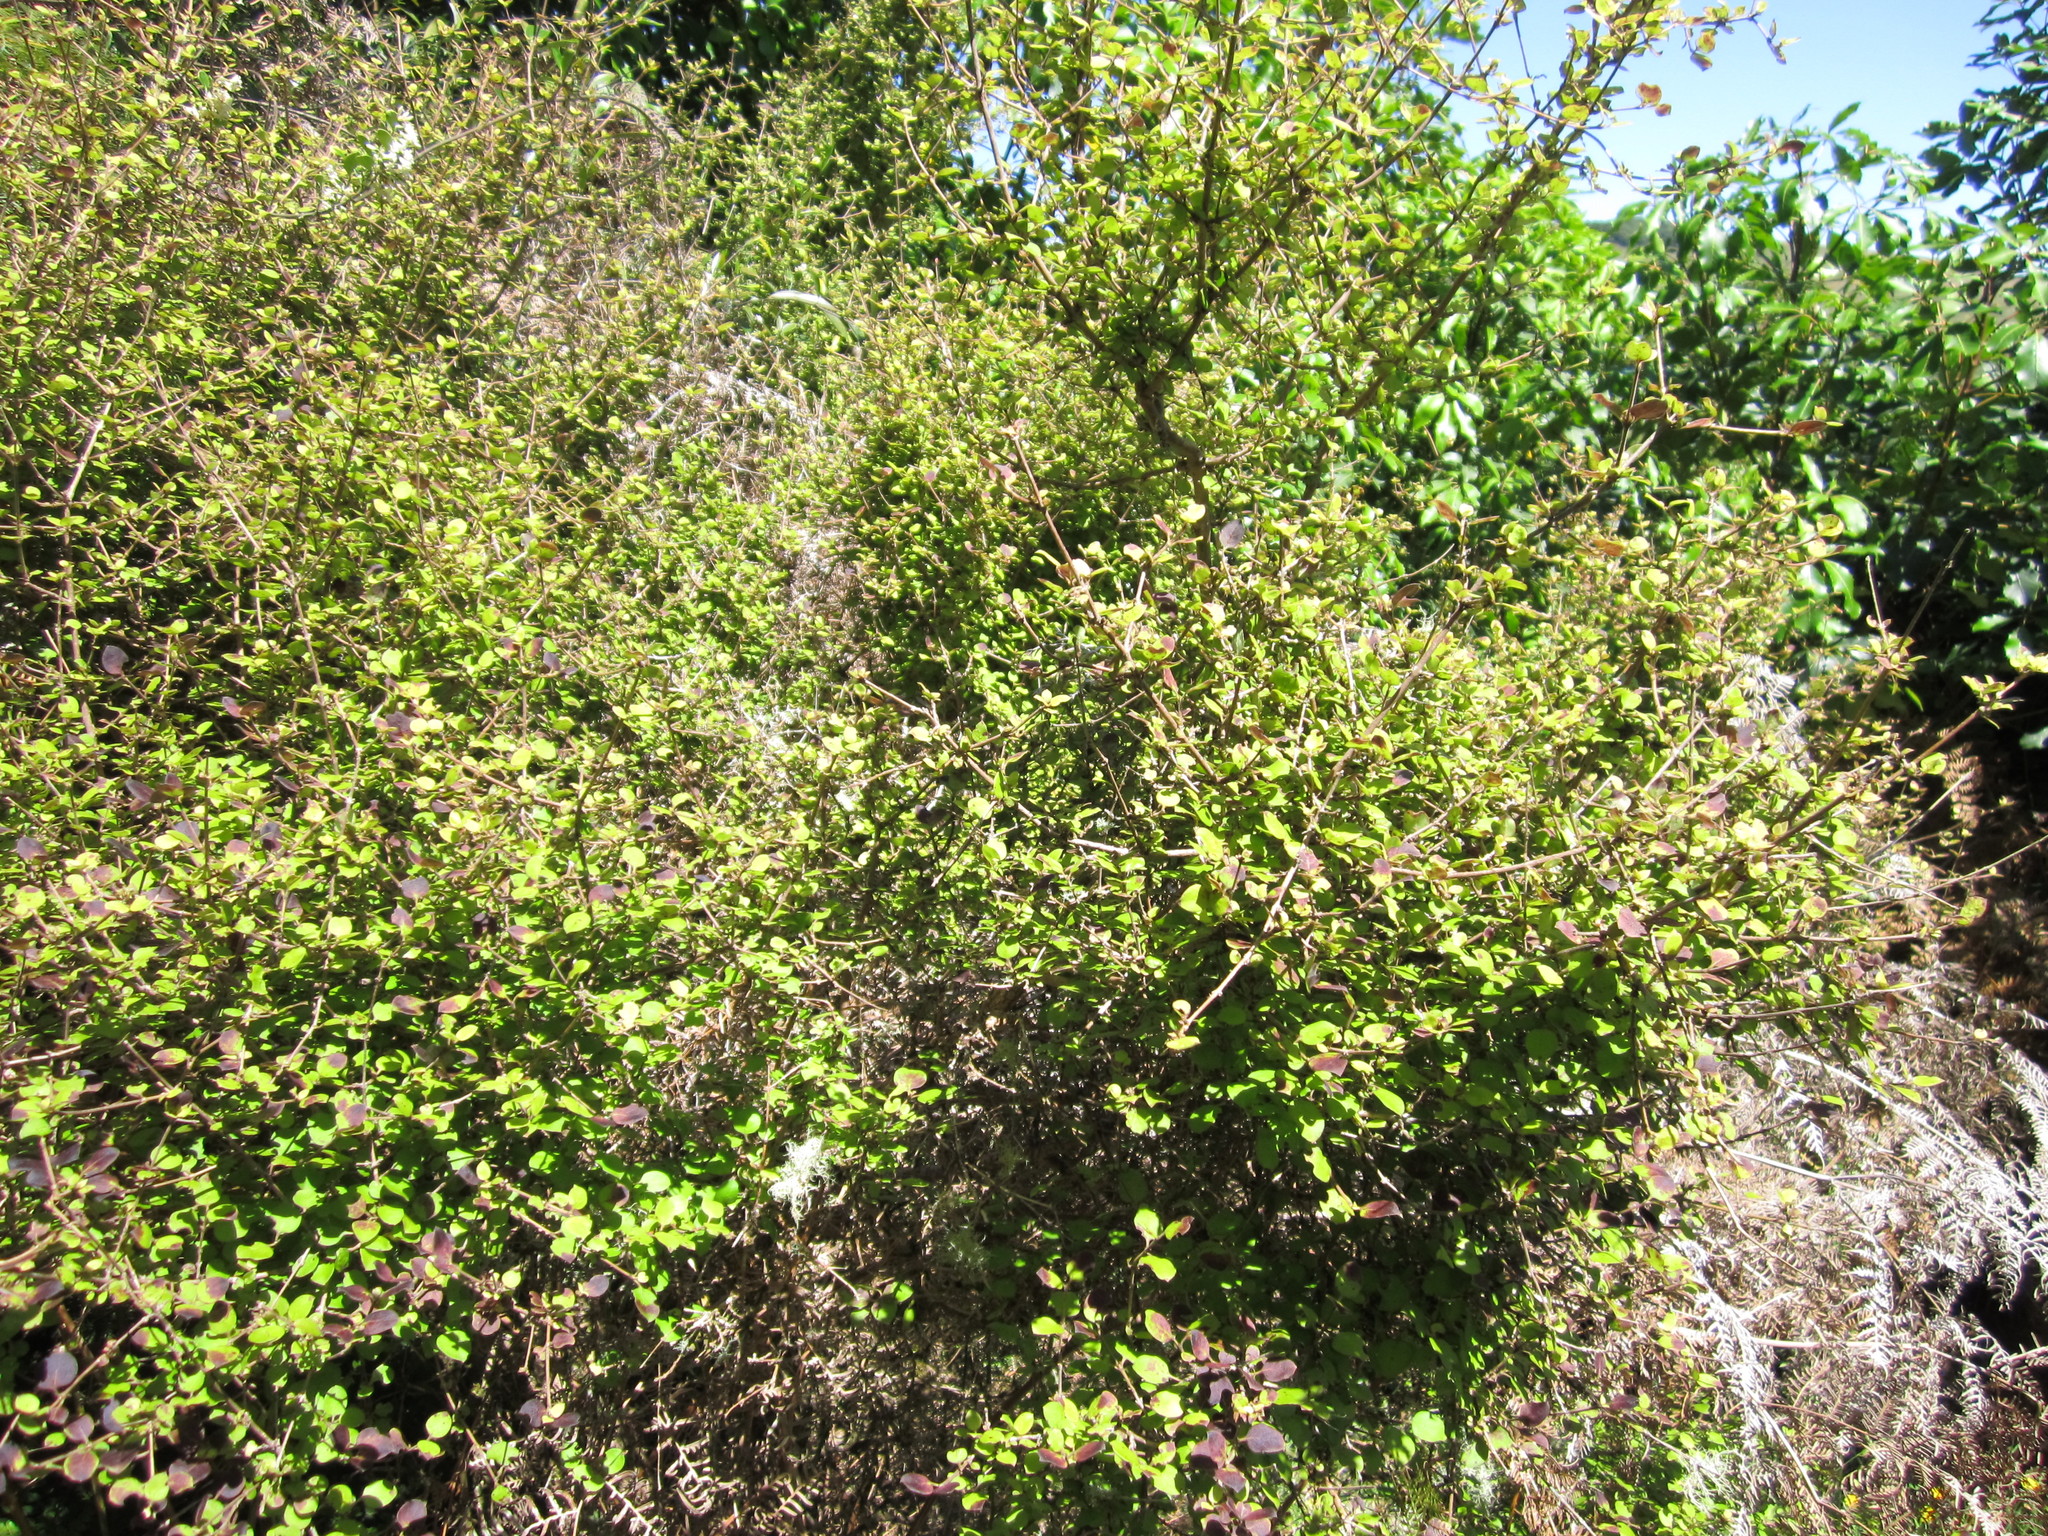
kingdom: Plantae
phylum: Tracheophyta
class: Magnoliopsida
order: Gentianales
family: Rubiaceae
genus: Coprosma
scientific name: Coprosma rotundifolia
